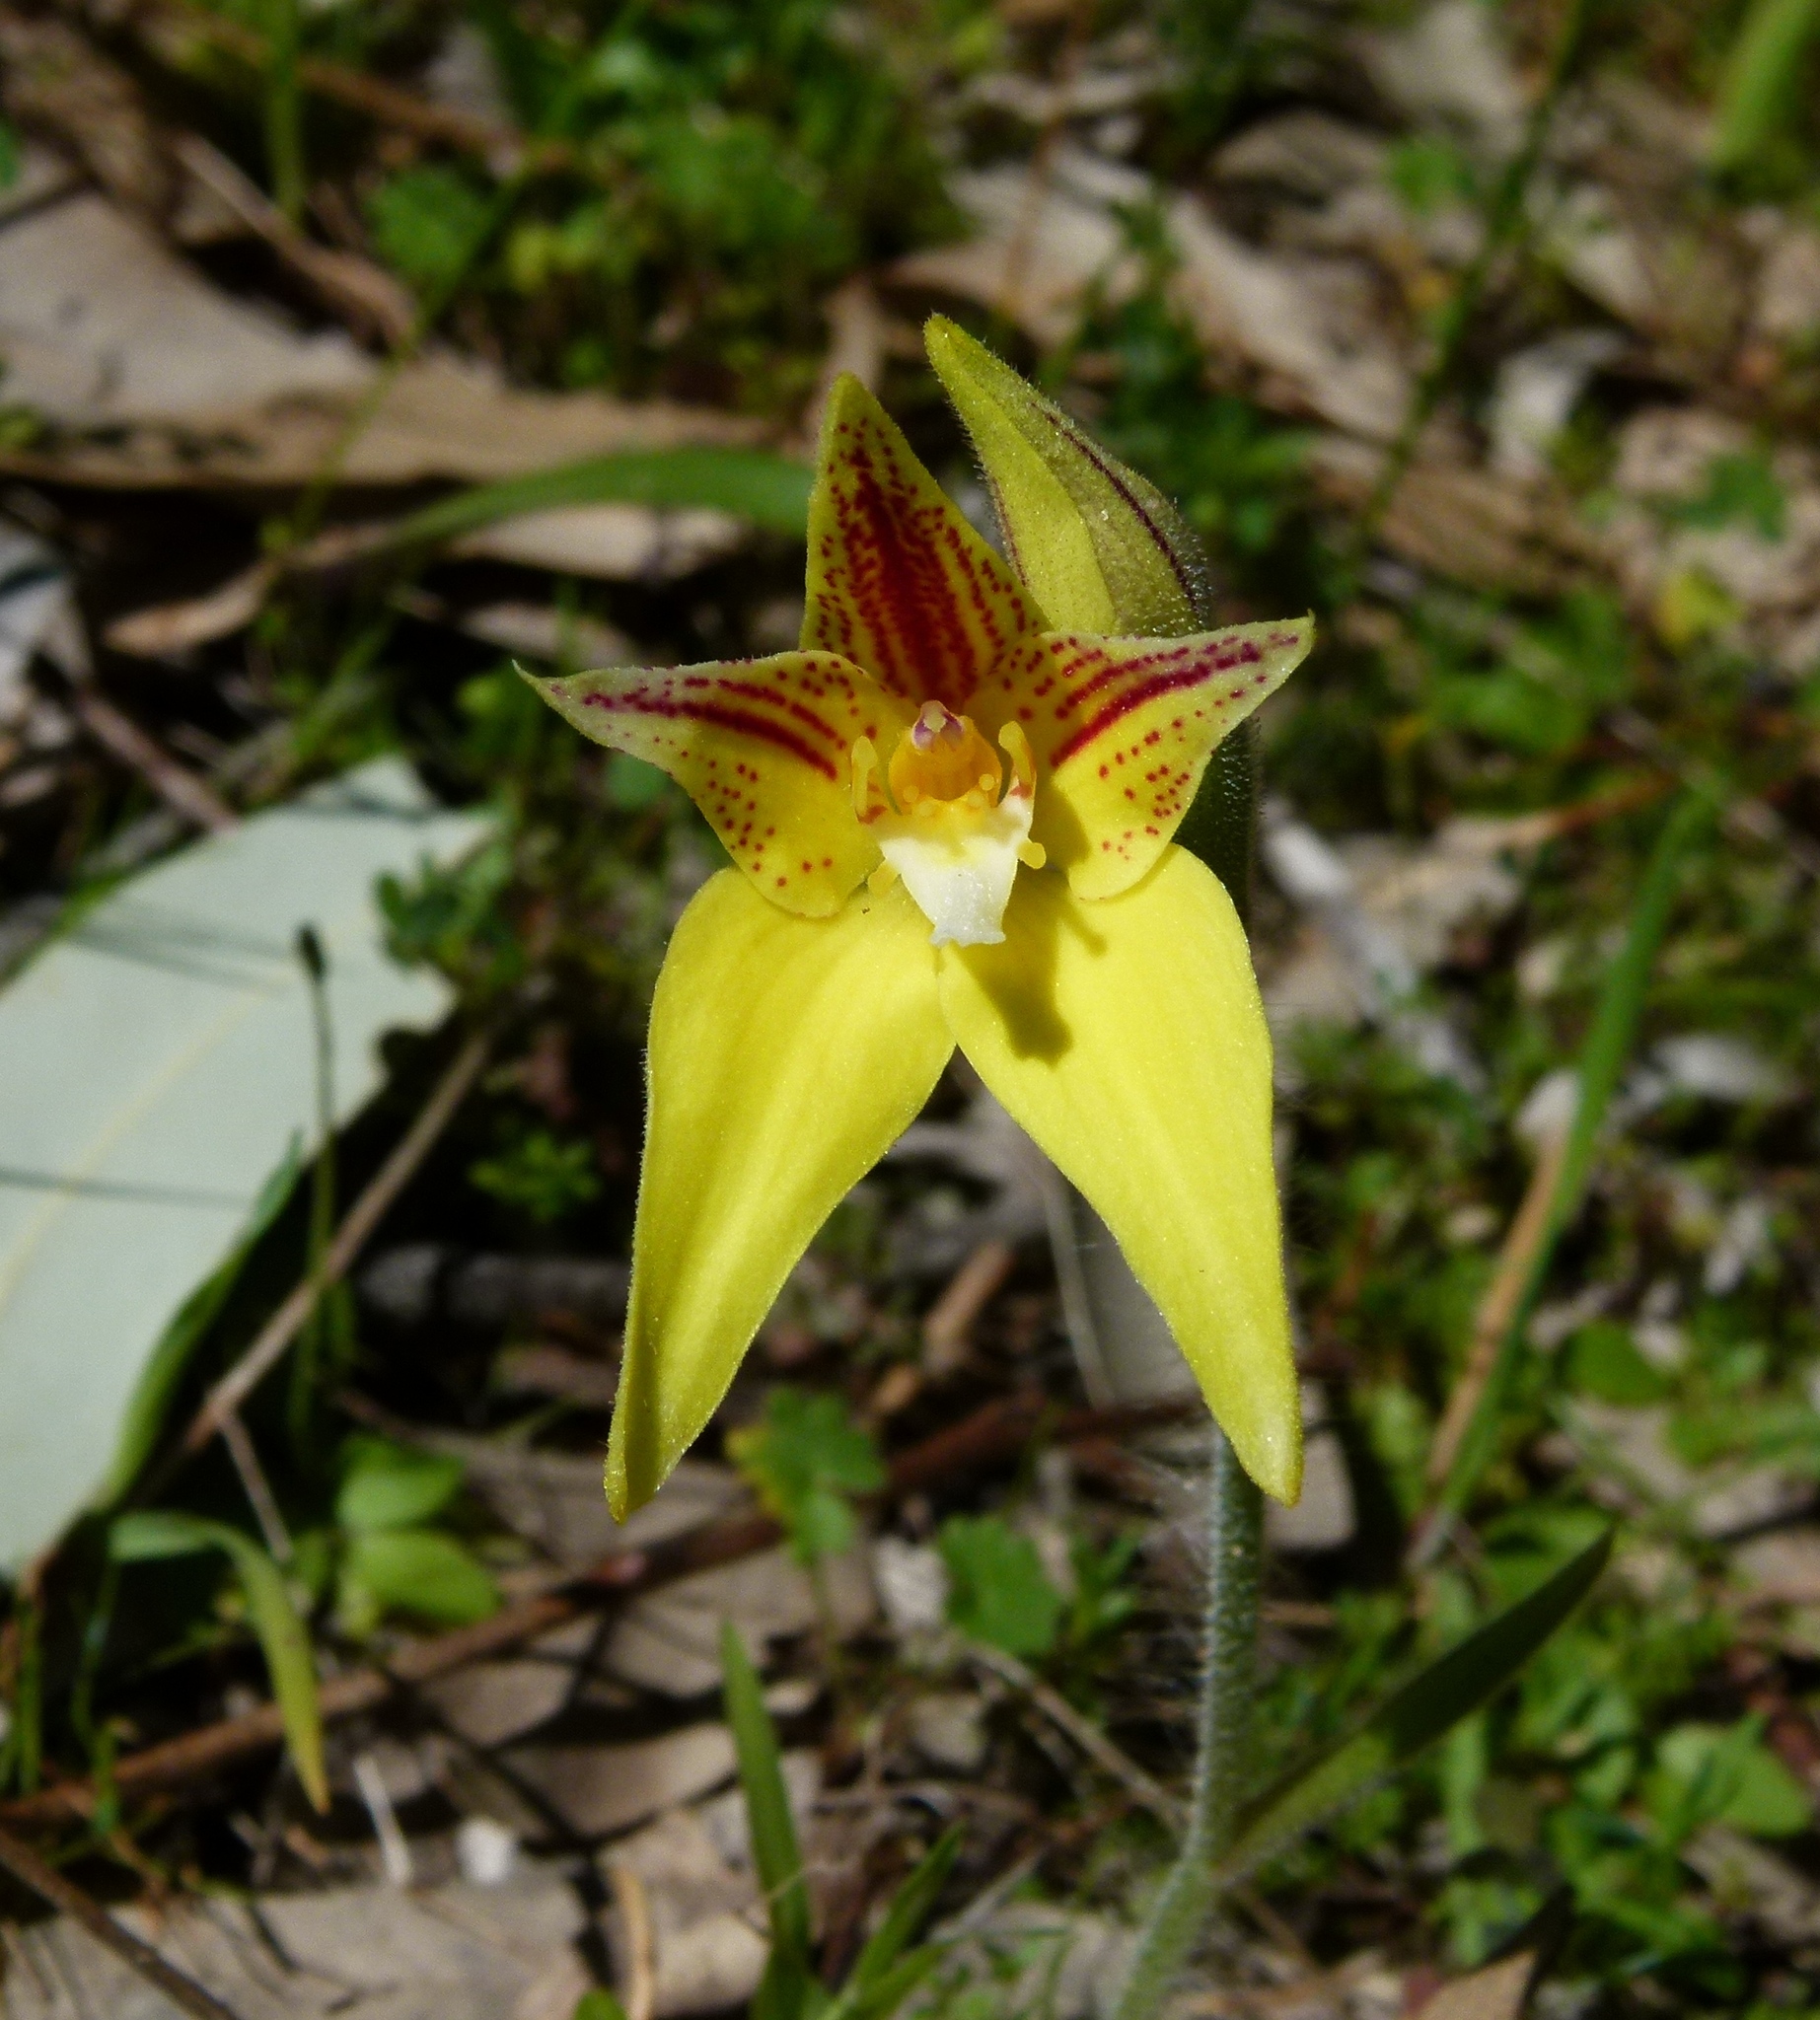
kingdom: Plantae
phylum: Tracheophyta
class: Liliopsida
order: Asparagales
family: Orchidaceae
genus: Caladenia
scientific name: Caladenia flava
